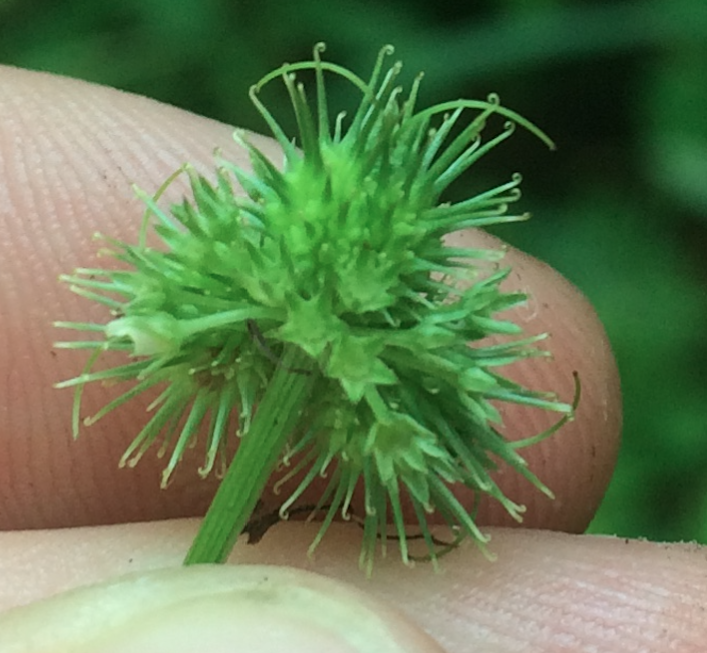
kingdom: Plantae
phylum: Tracheophyta
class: Magnoliopsida
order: Apiales
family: Apiaceae
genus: Sanicula
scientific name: Sanicula marilandica
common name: Black snakeroot
